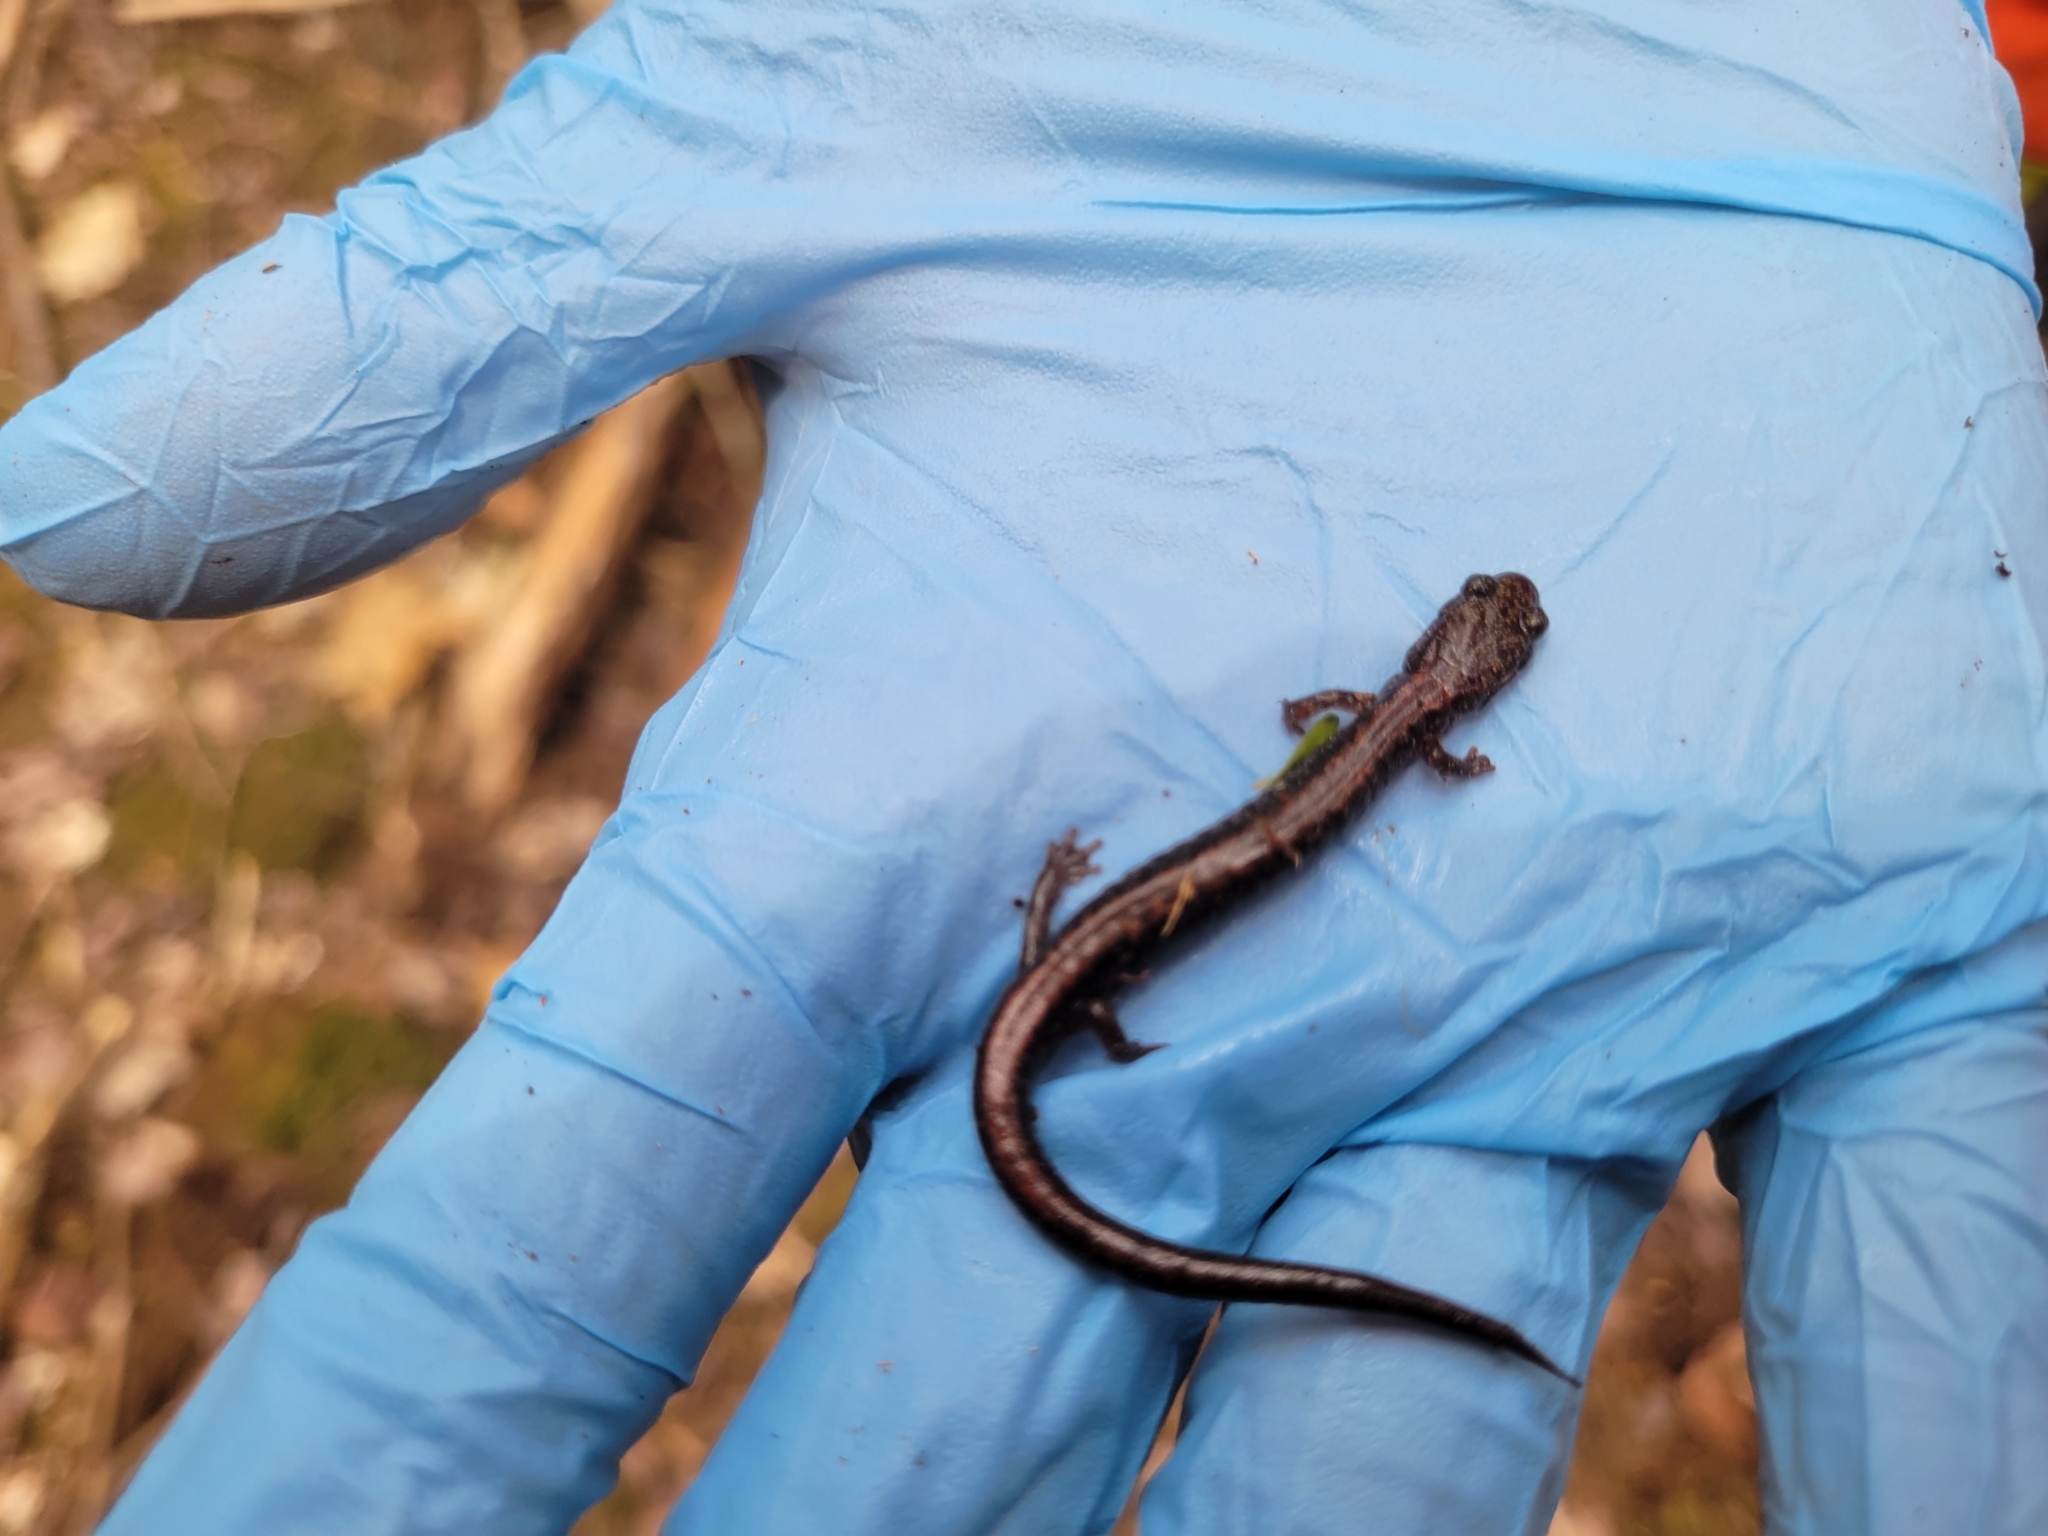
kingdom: Animalia
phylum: Chordata
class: Amphibia
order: Caudata
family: Plethodontidae
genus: Plethodon
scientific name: Plethodon cinereus
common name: Redback salamander
